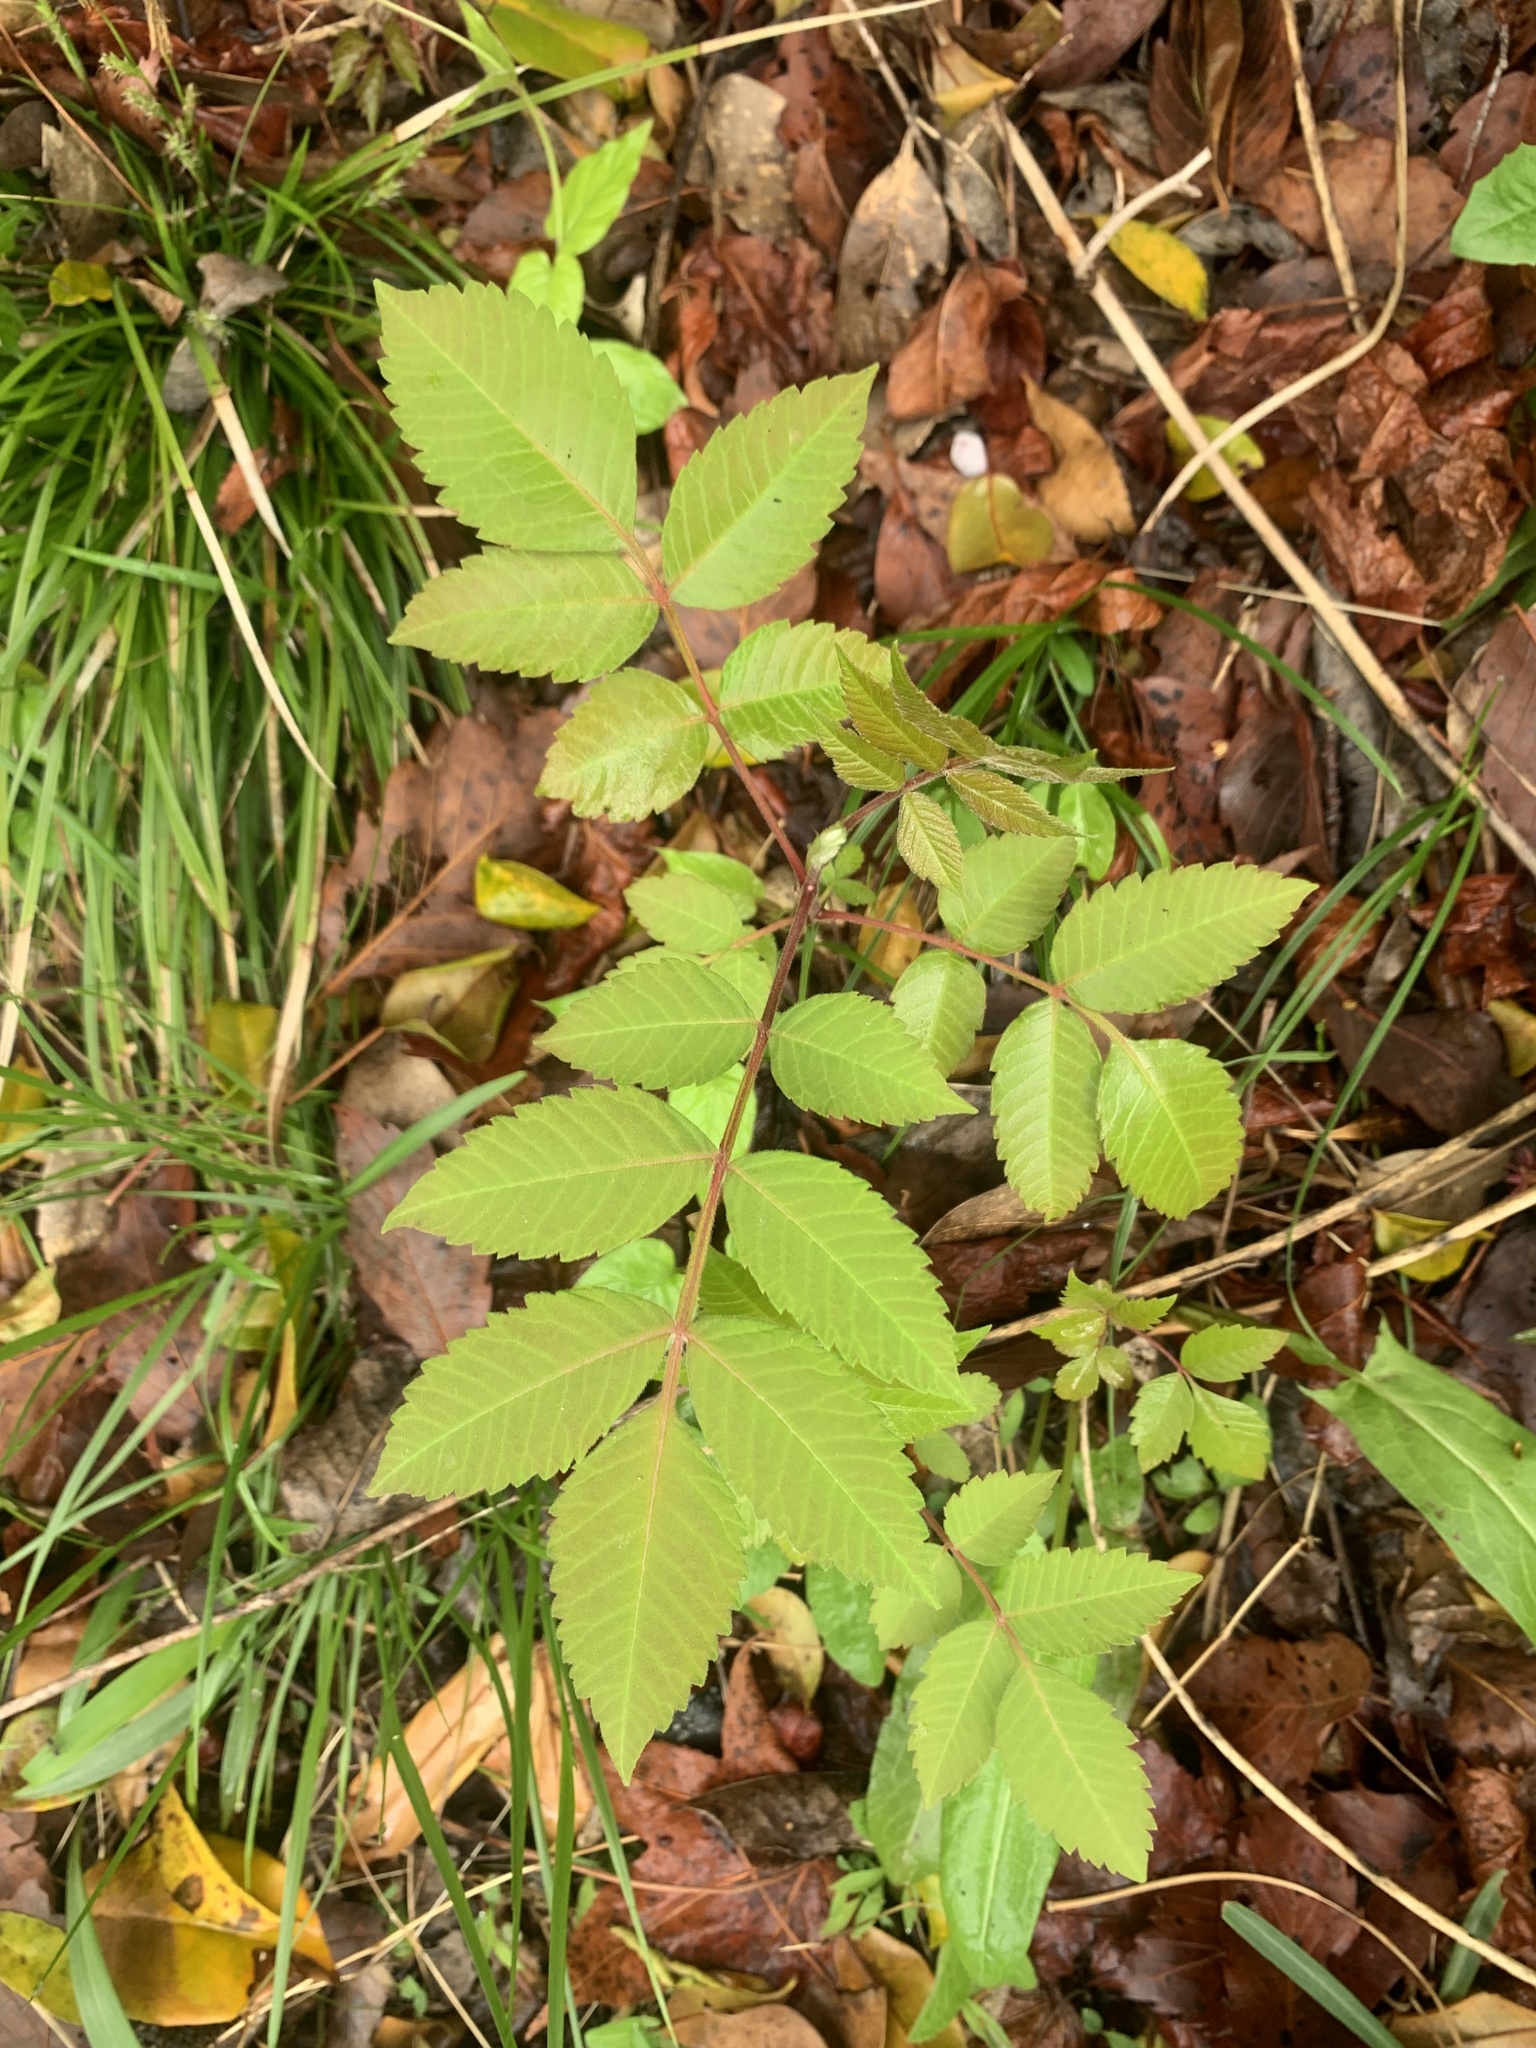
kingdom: Plantae
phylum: Tracheophyta
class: Magnoliopsida
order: Sapindales
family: Anacardiaceae
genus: Rhus
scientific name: Rhus chinensis
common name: Chinese gall
